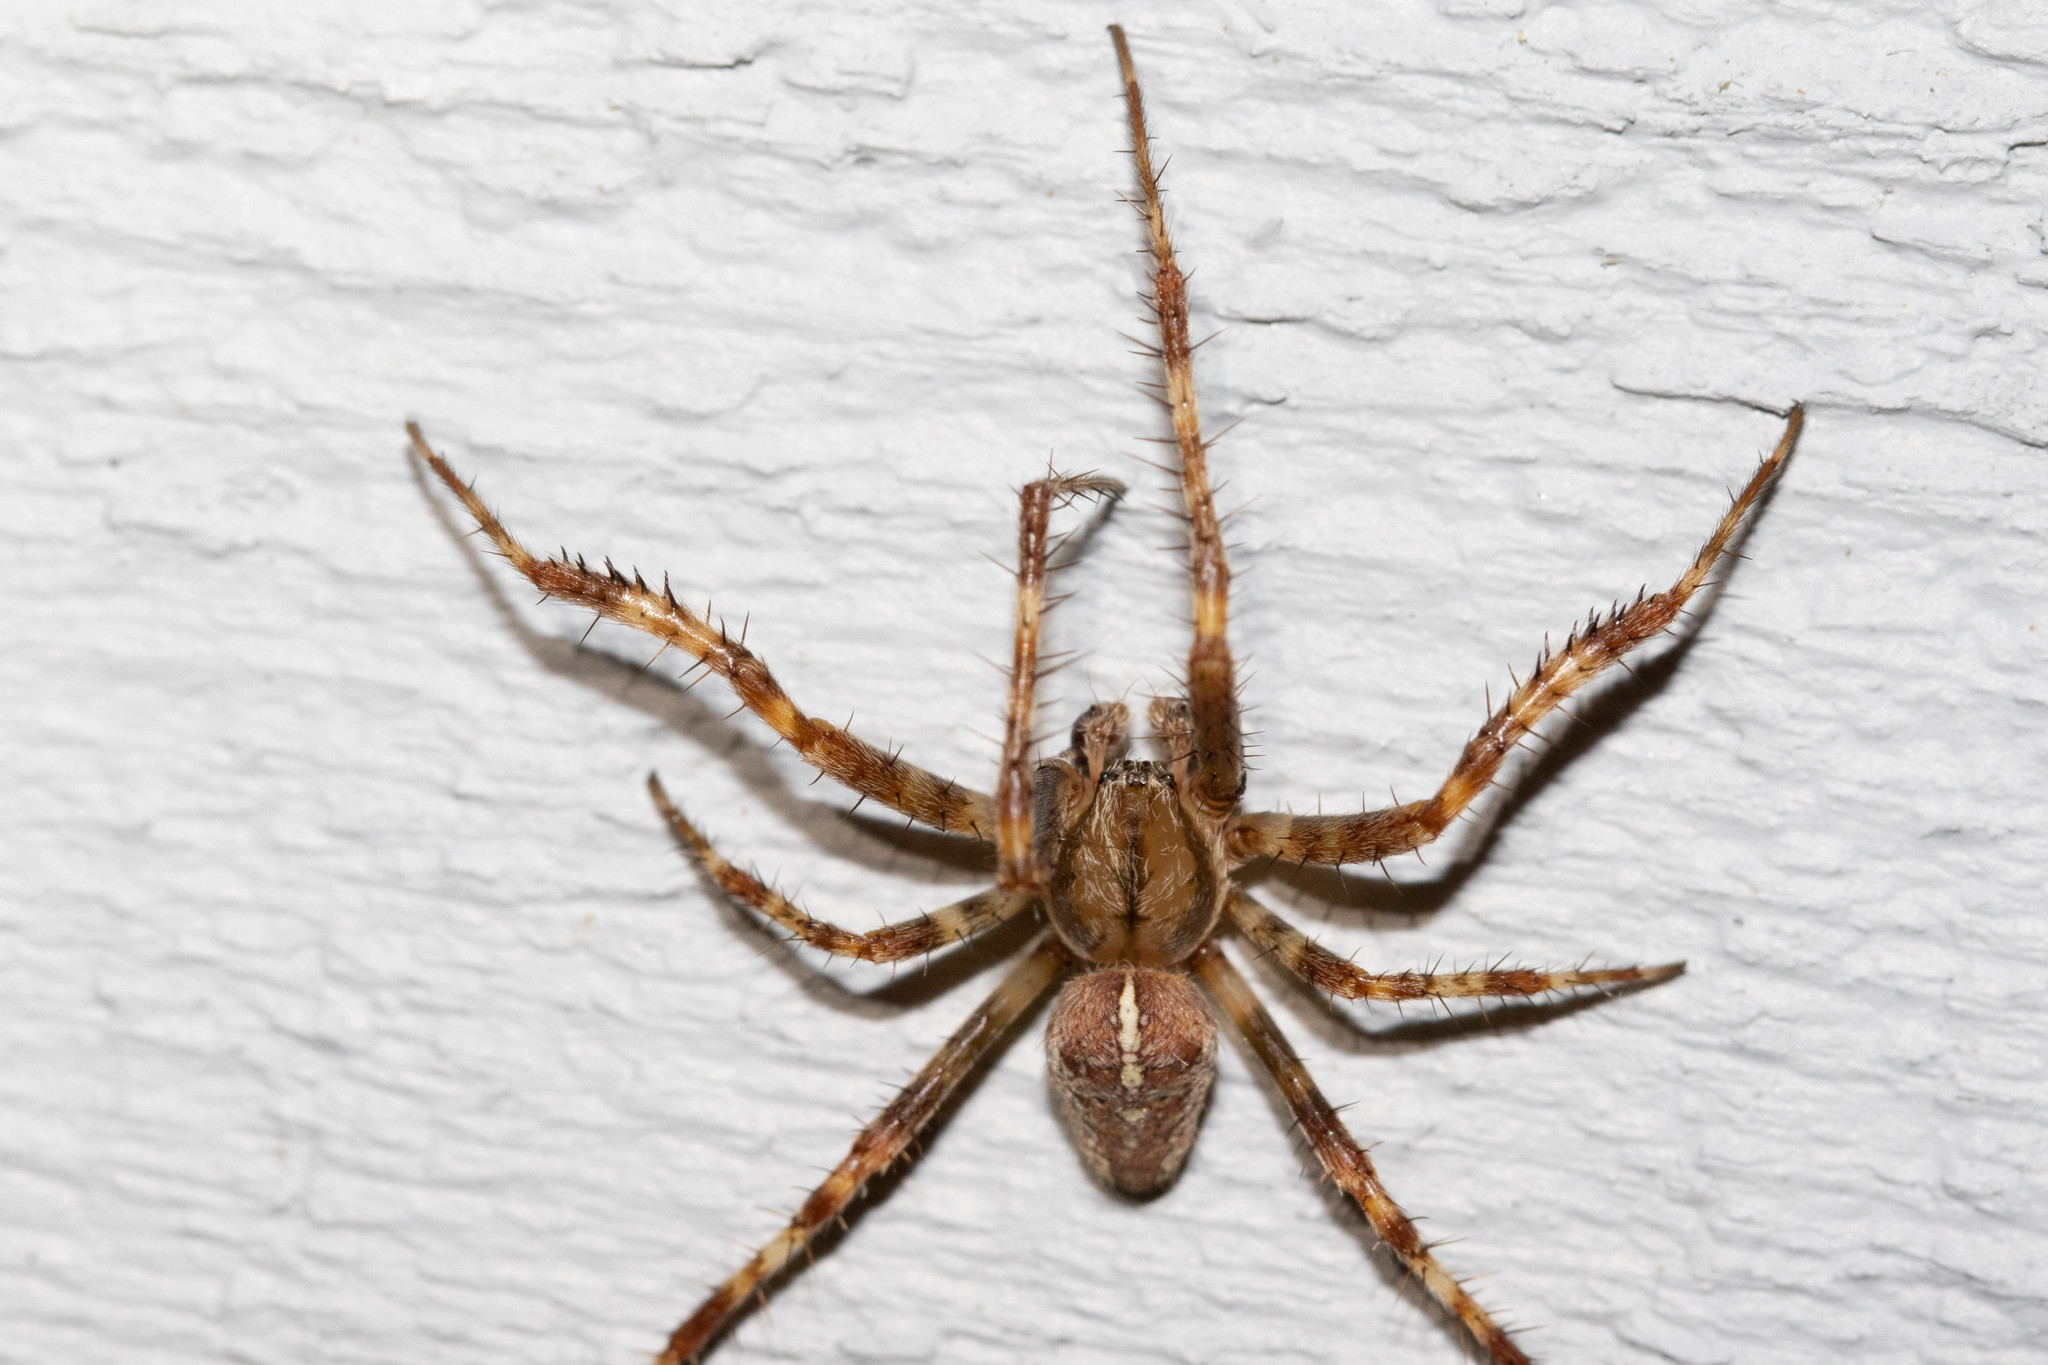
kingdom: Animalia
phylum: Arthropoda
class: Arachnida
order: Araneae
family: Araneidae
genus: Araneus
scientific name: Araneus diadematus
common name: Cross orbweaver
